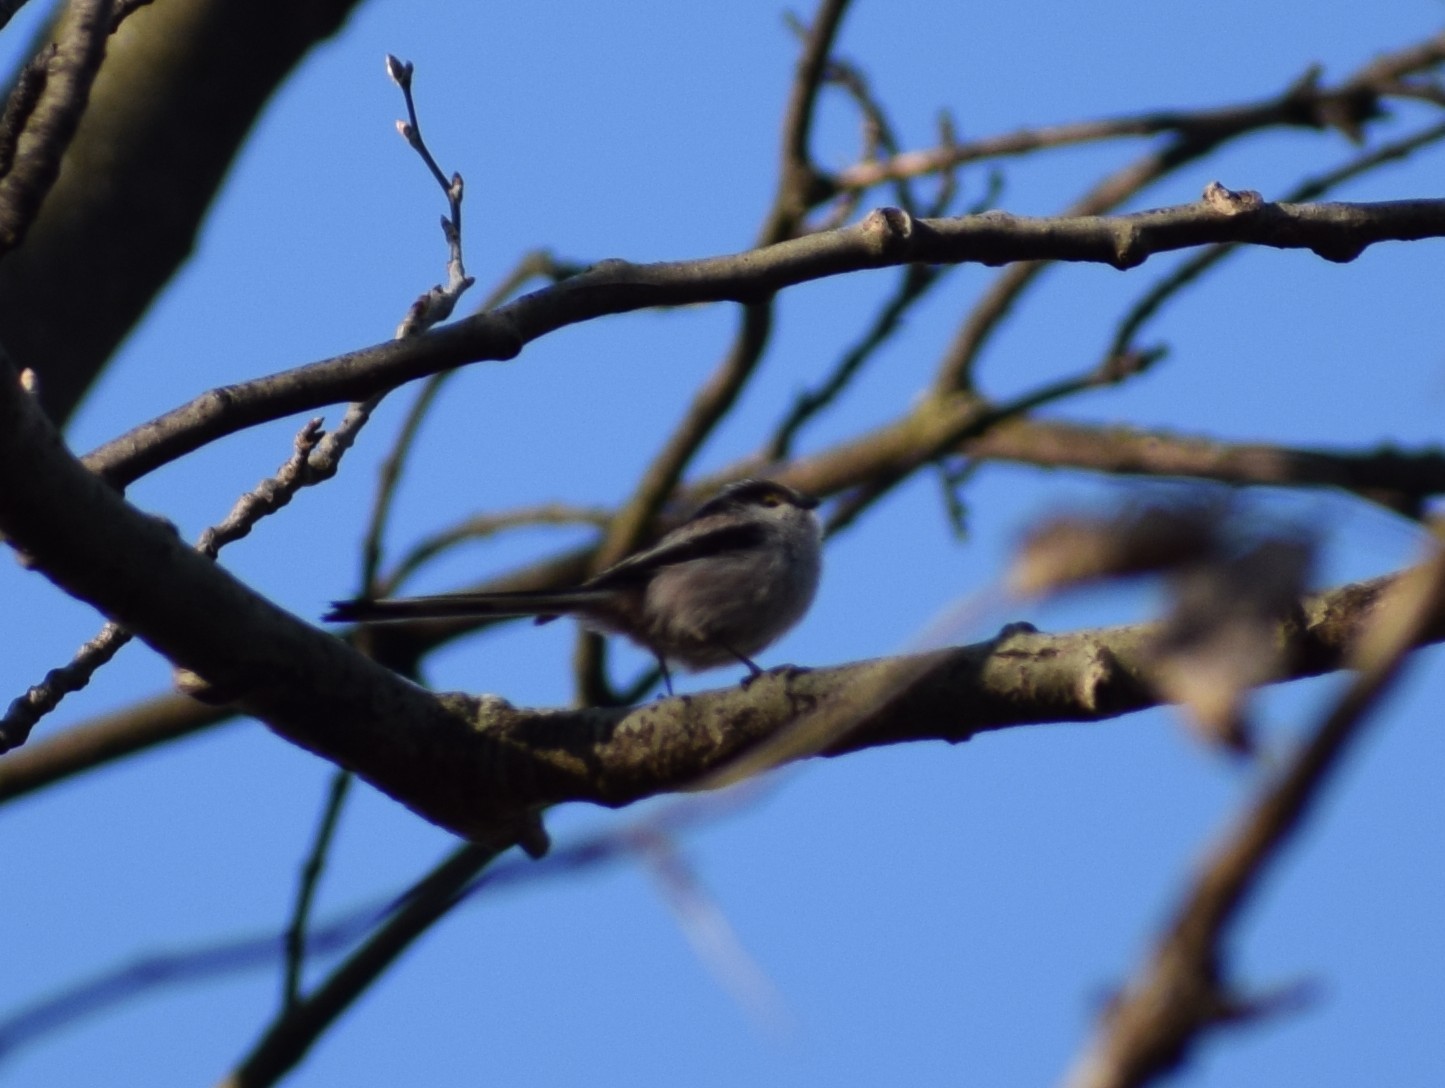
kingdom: Animalia
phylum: Chordata
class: Aves
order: Passeriformes
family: Aegithalidae
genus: Aegithalos
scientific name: Aegithalos caudatus
